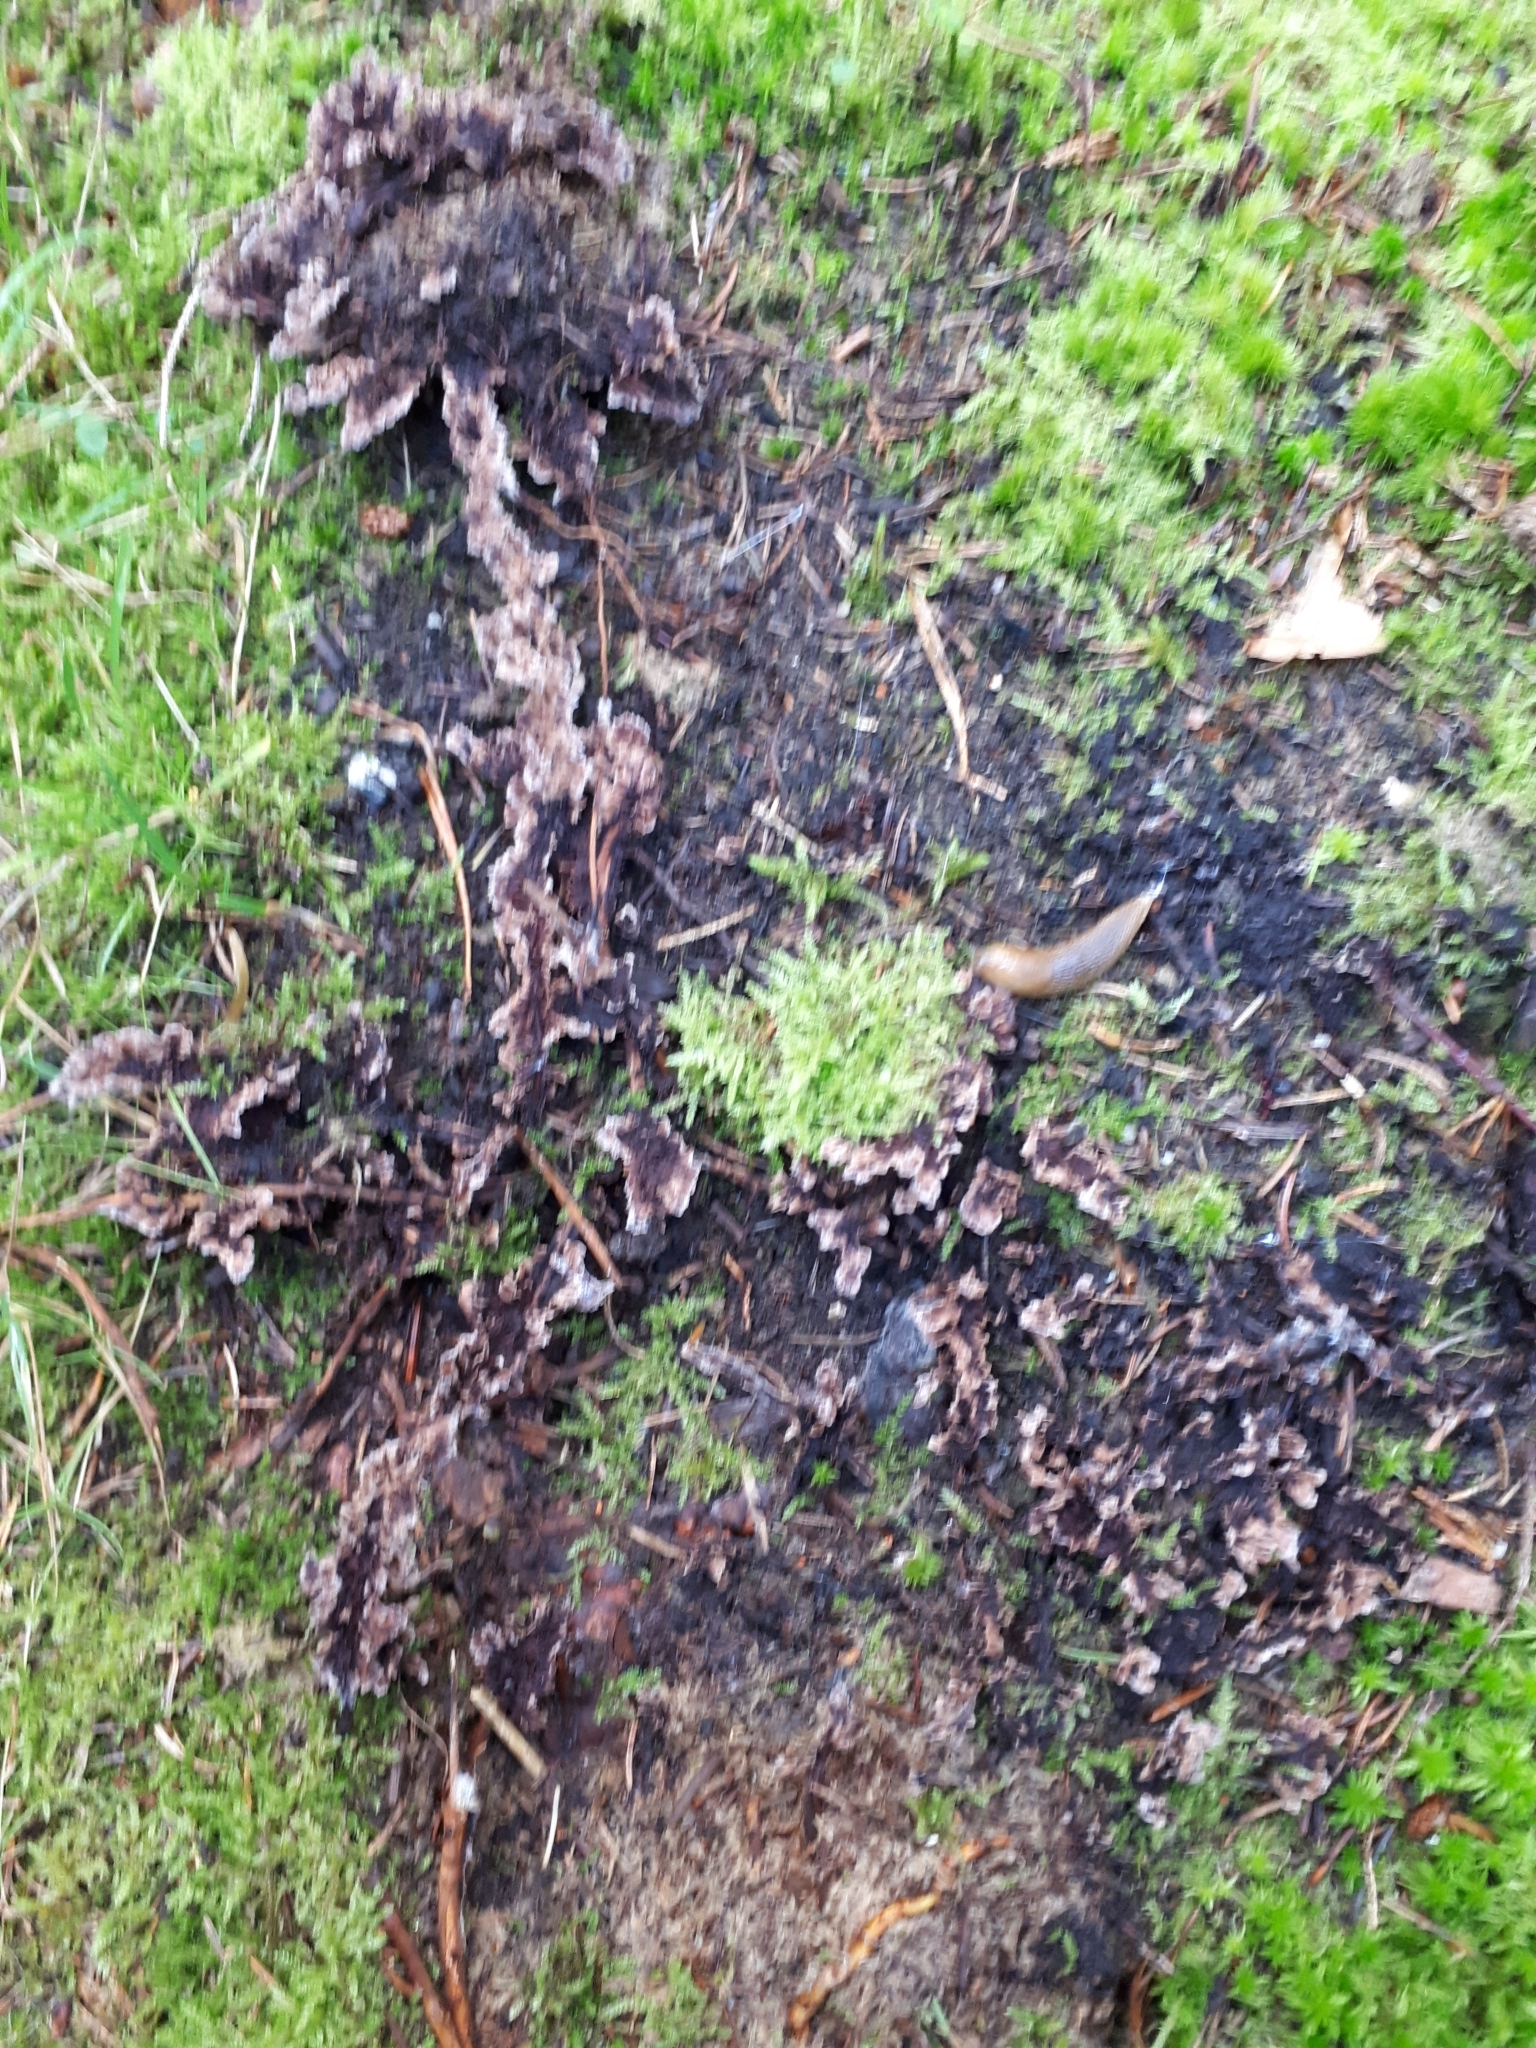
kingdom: Fungi
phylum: Basidiomycota
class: Agaricomycetes
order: Thelephorales
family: Thelephoraceae
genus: Thelephora
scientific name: Thelephora terrestris
